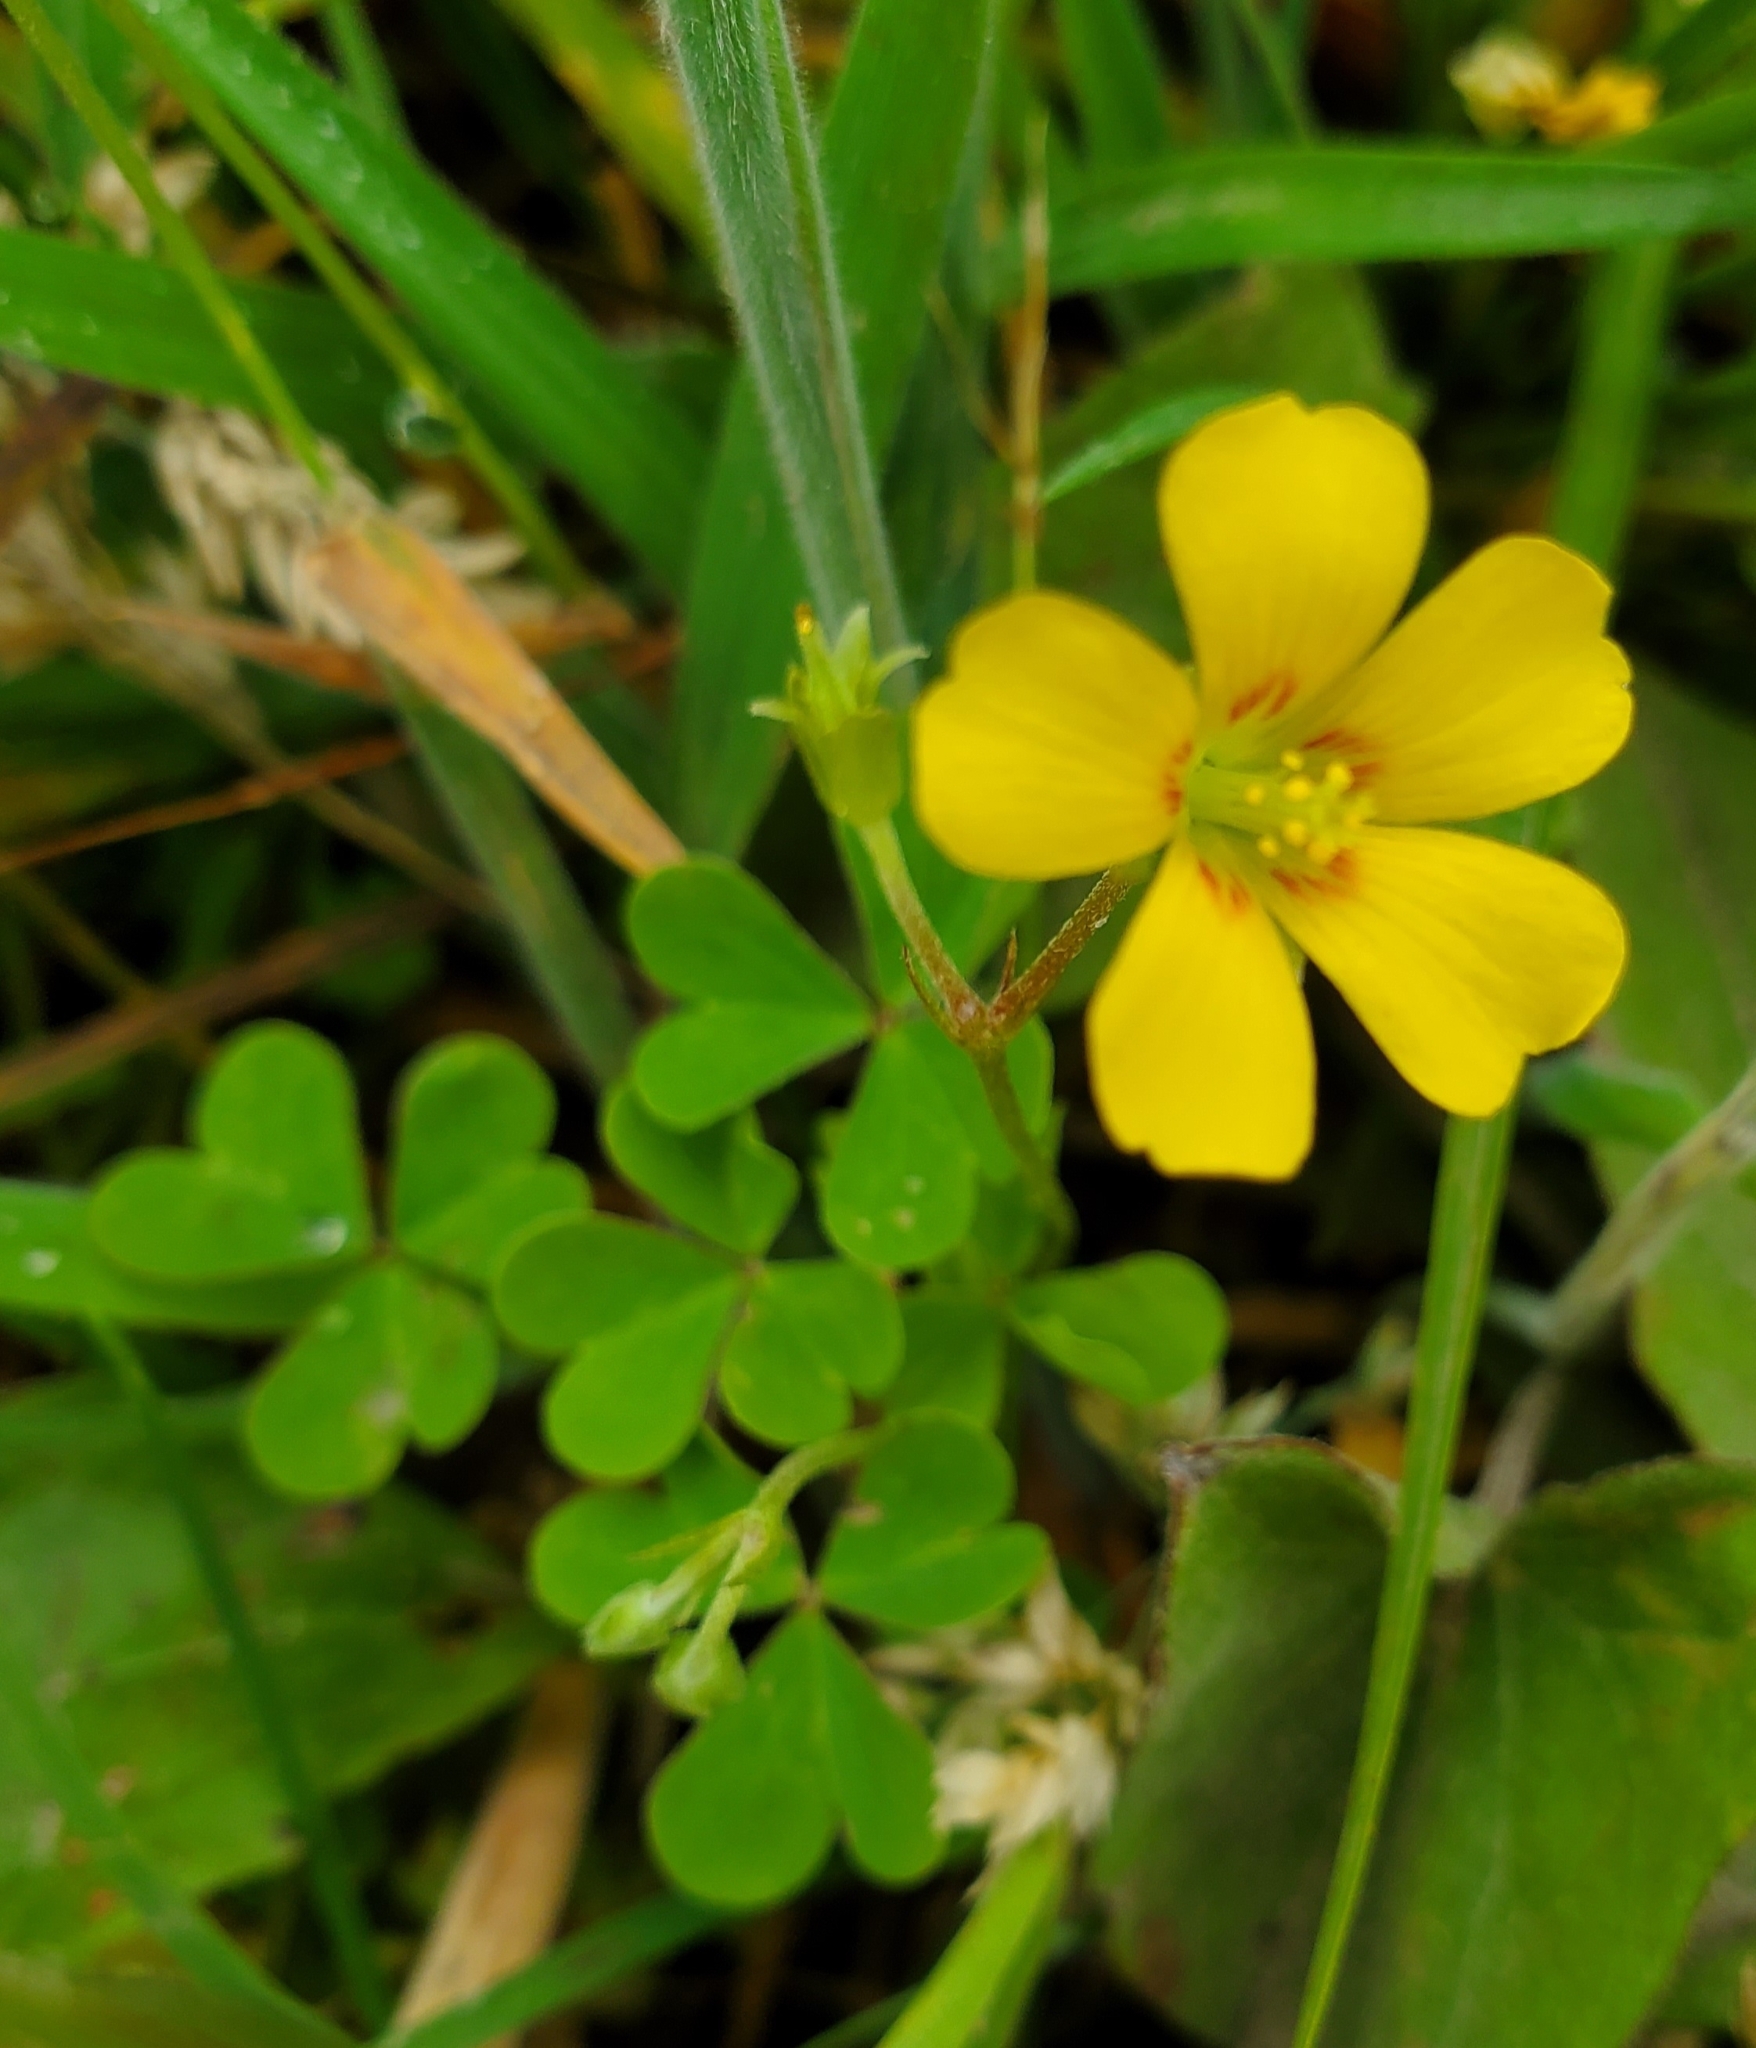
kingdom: Plantae
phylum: Tracheophyta
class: Magnoliopsida
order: Oxalidales
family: Oxalidaceae
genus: Oxalis
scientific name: Oxalis dillenii
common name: Sussex yellow-sorrel
